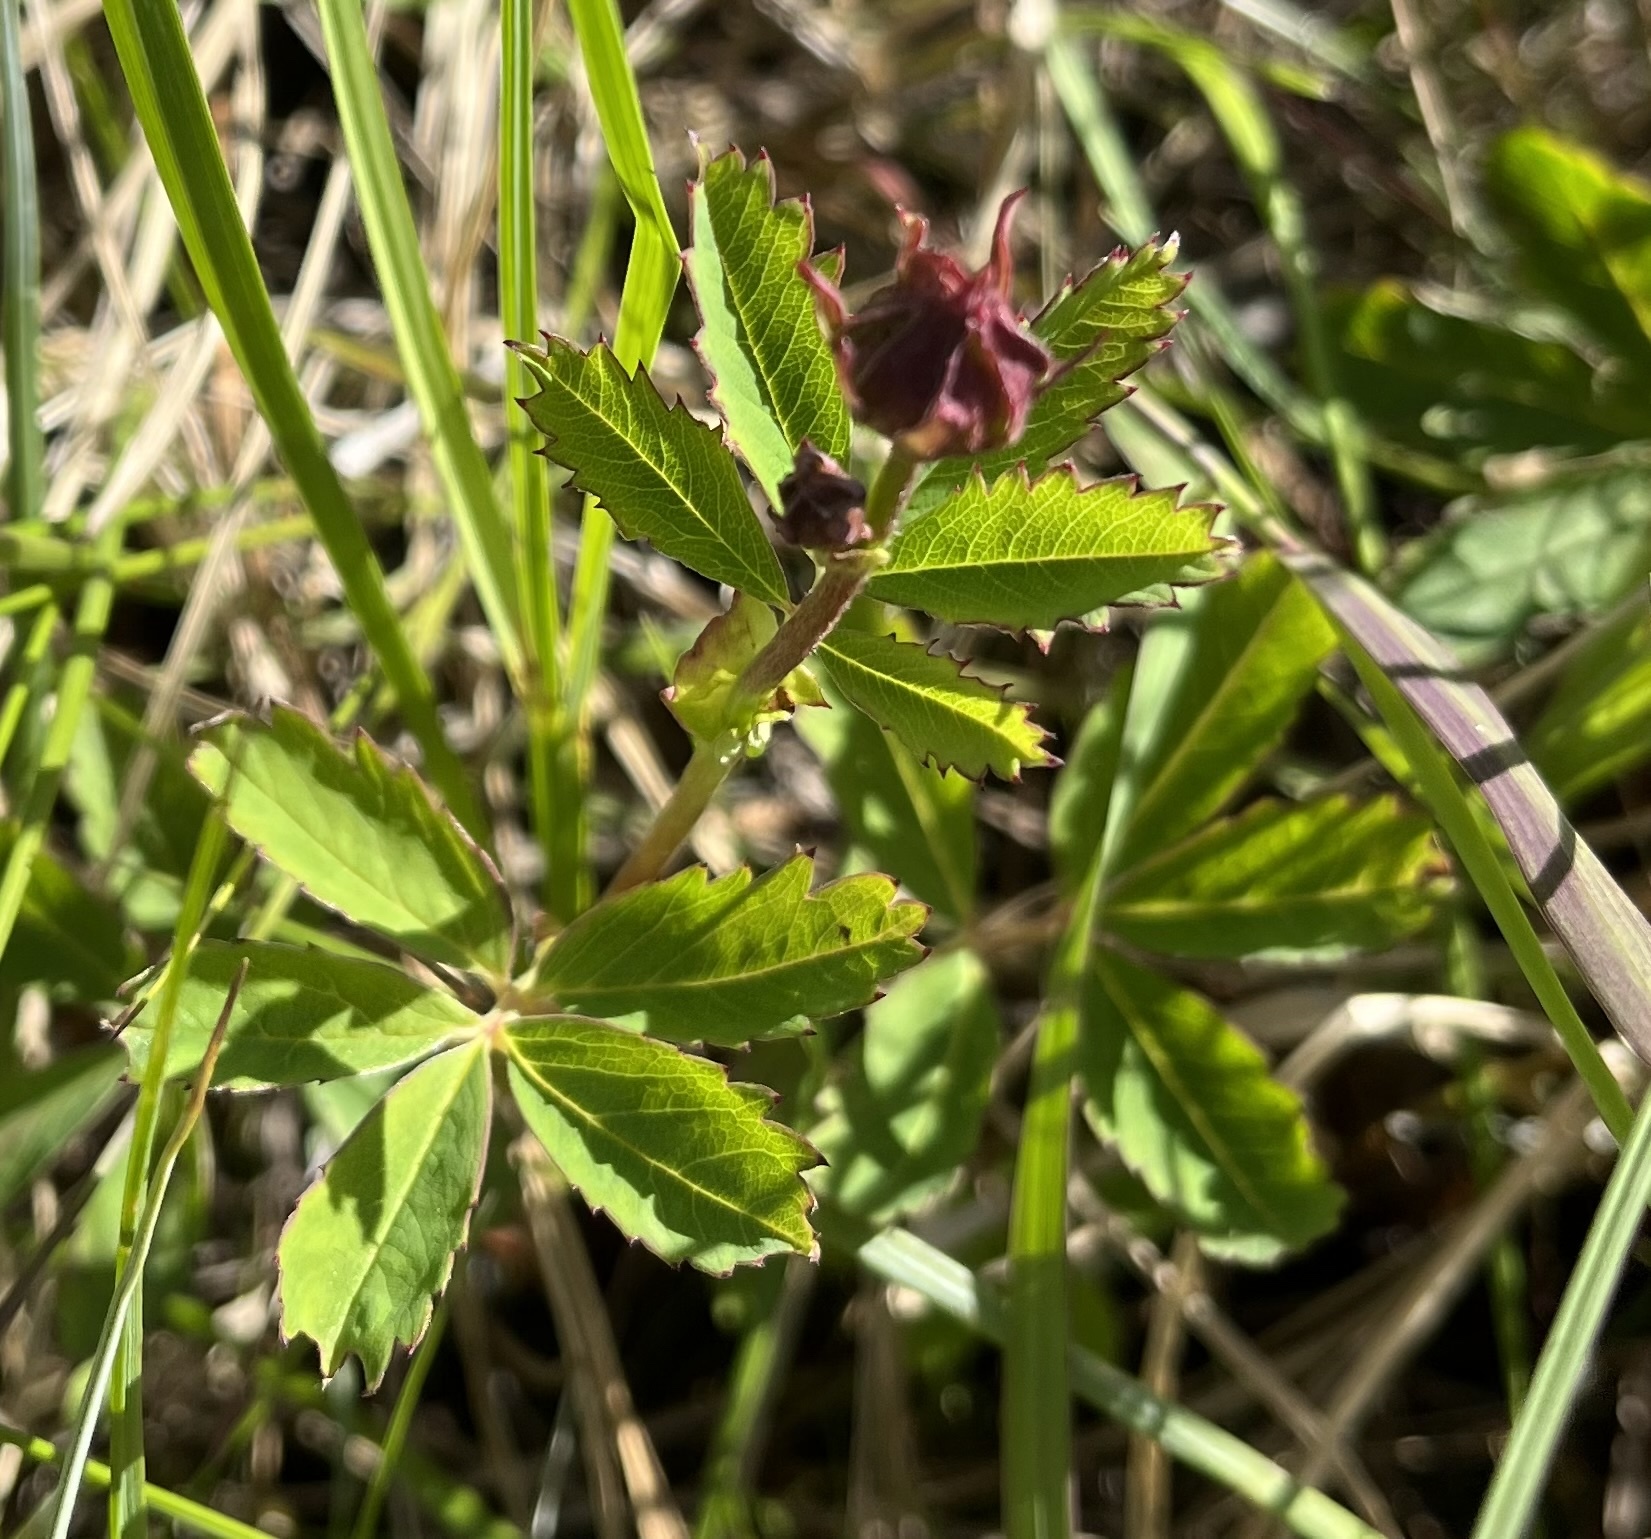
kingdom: Plantae
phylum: Tracheophyta
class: Magnoliopsida
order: Rosales
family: Rosaceae
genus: Comarum
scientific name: Comarum palustre
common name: Marsh cinquefoil
